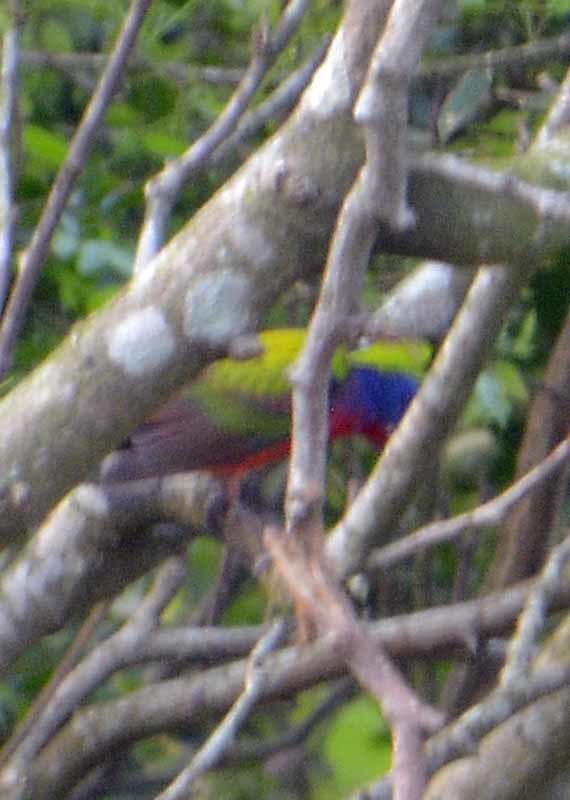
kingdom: Animalia
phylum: Chordata
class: Aves
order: Passeriformes
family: Cardinalidae
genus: Passerina
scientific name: Passerina ciris
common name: Painted bunting
